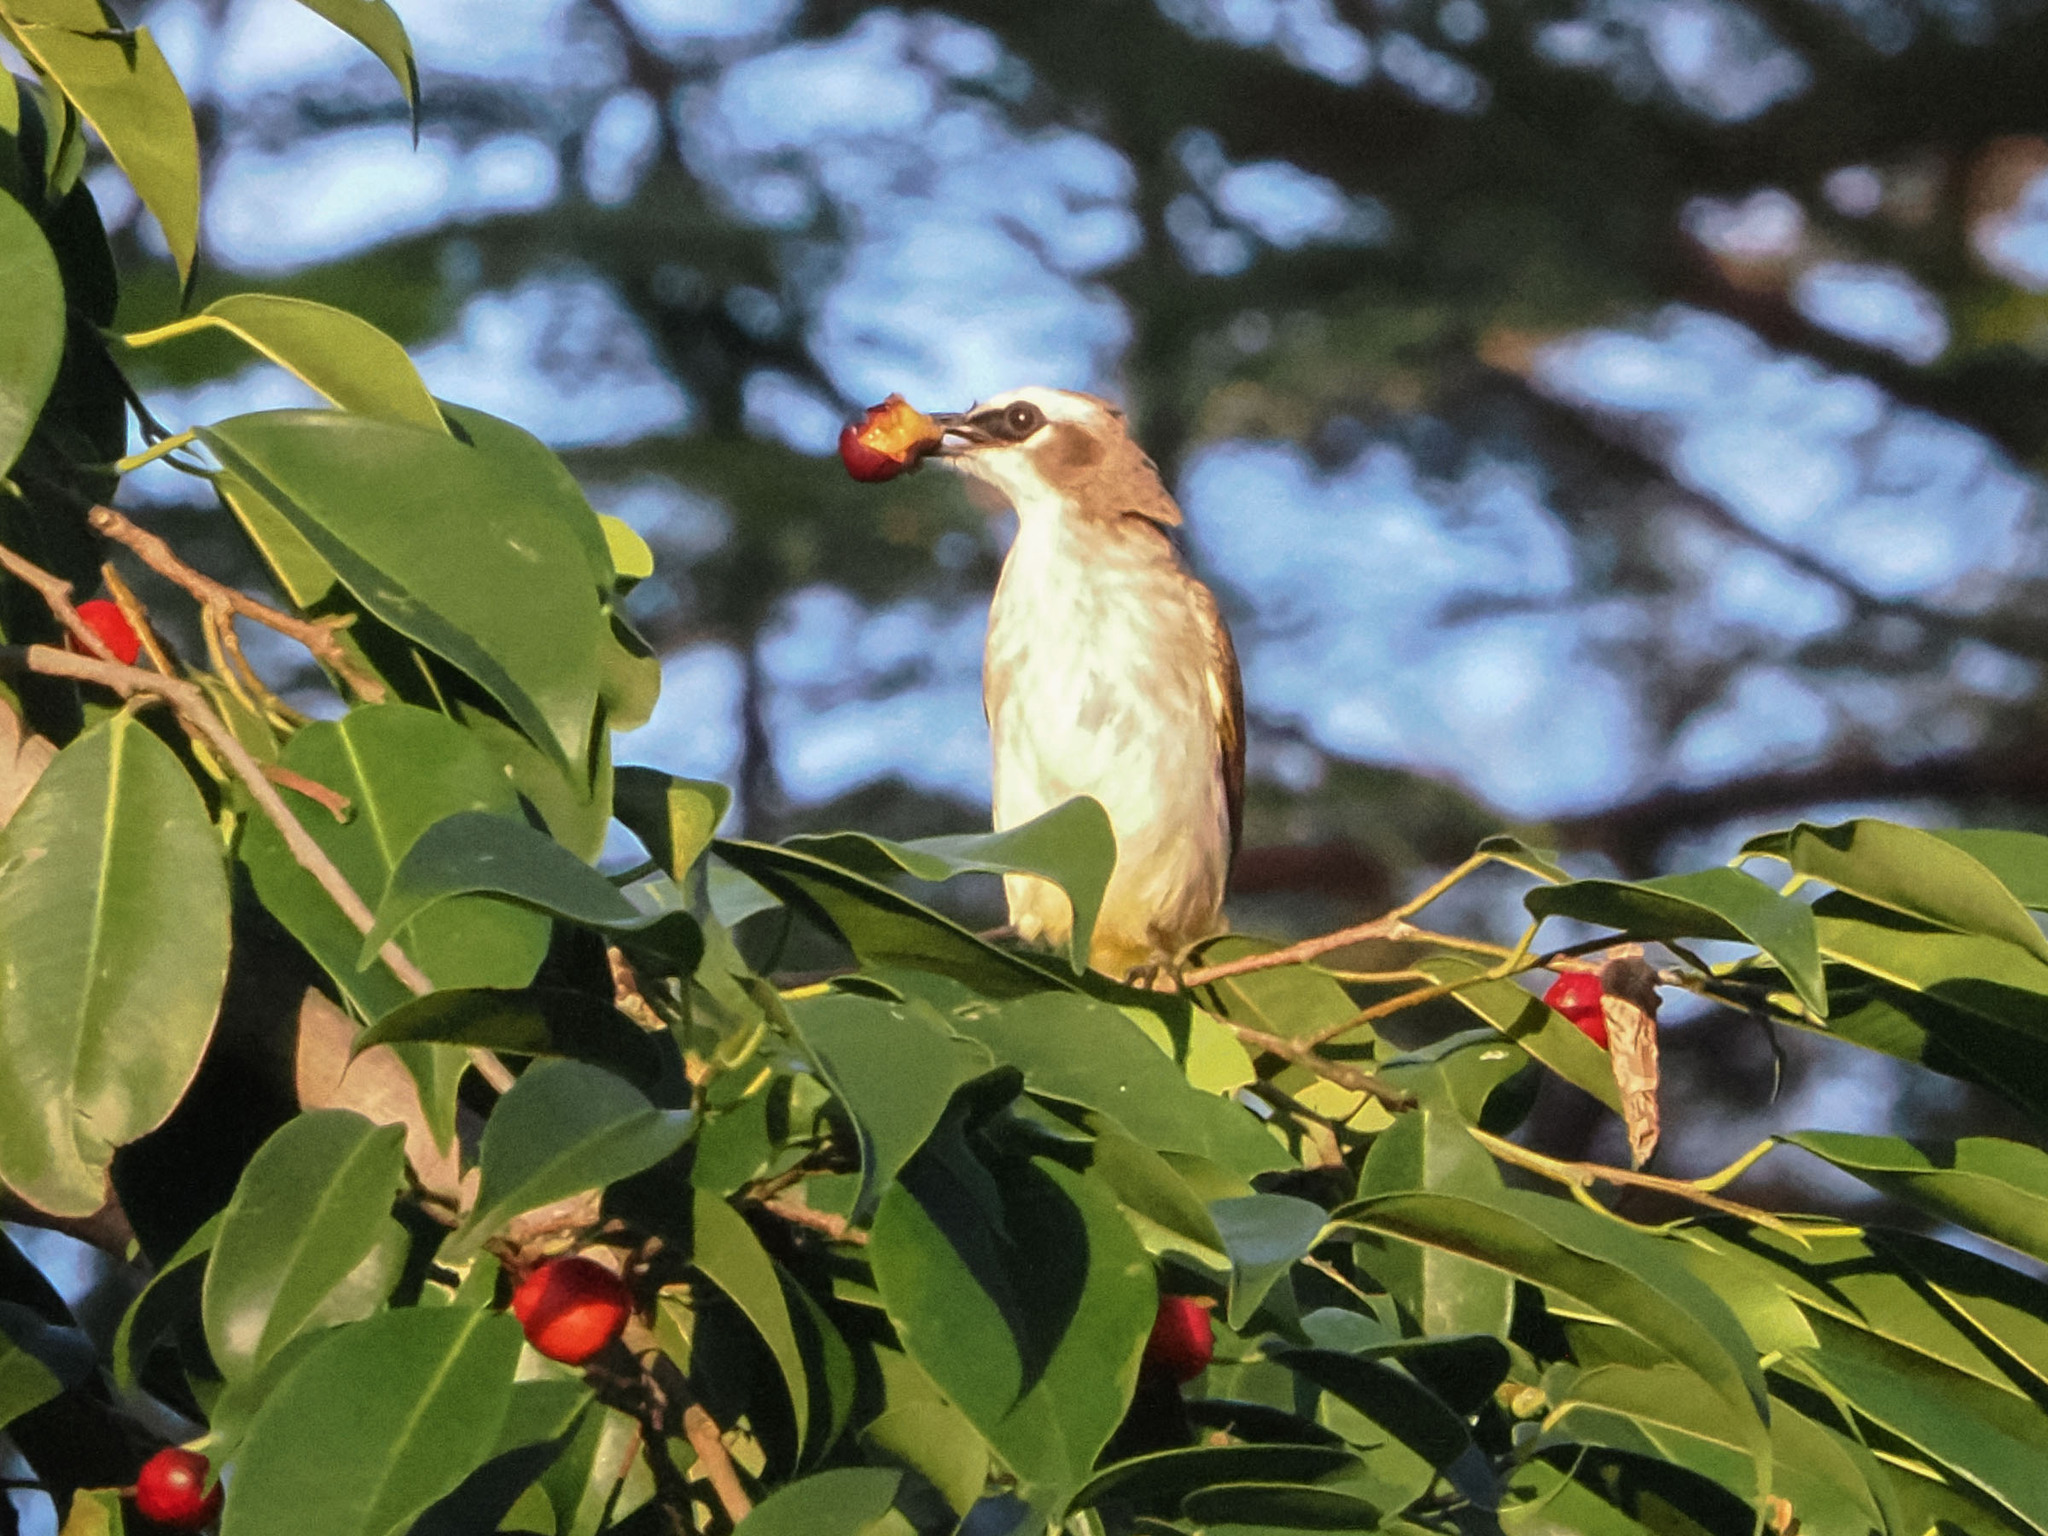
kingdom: Animalia
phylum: Chordata
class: Aves
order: Passeriformes
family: Pycnonotidae
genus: Pycnonotus
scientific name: Pycnonotus goiavier
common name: Yellow-vented bulbul
